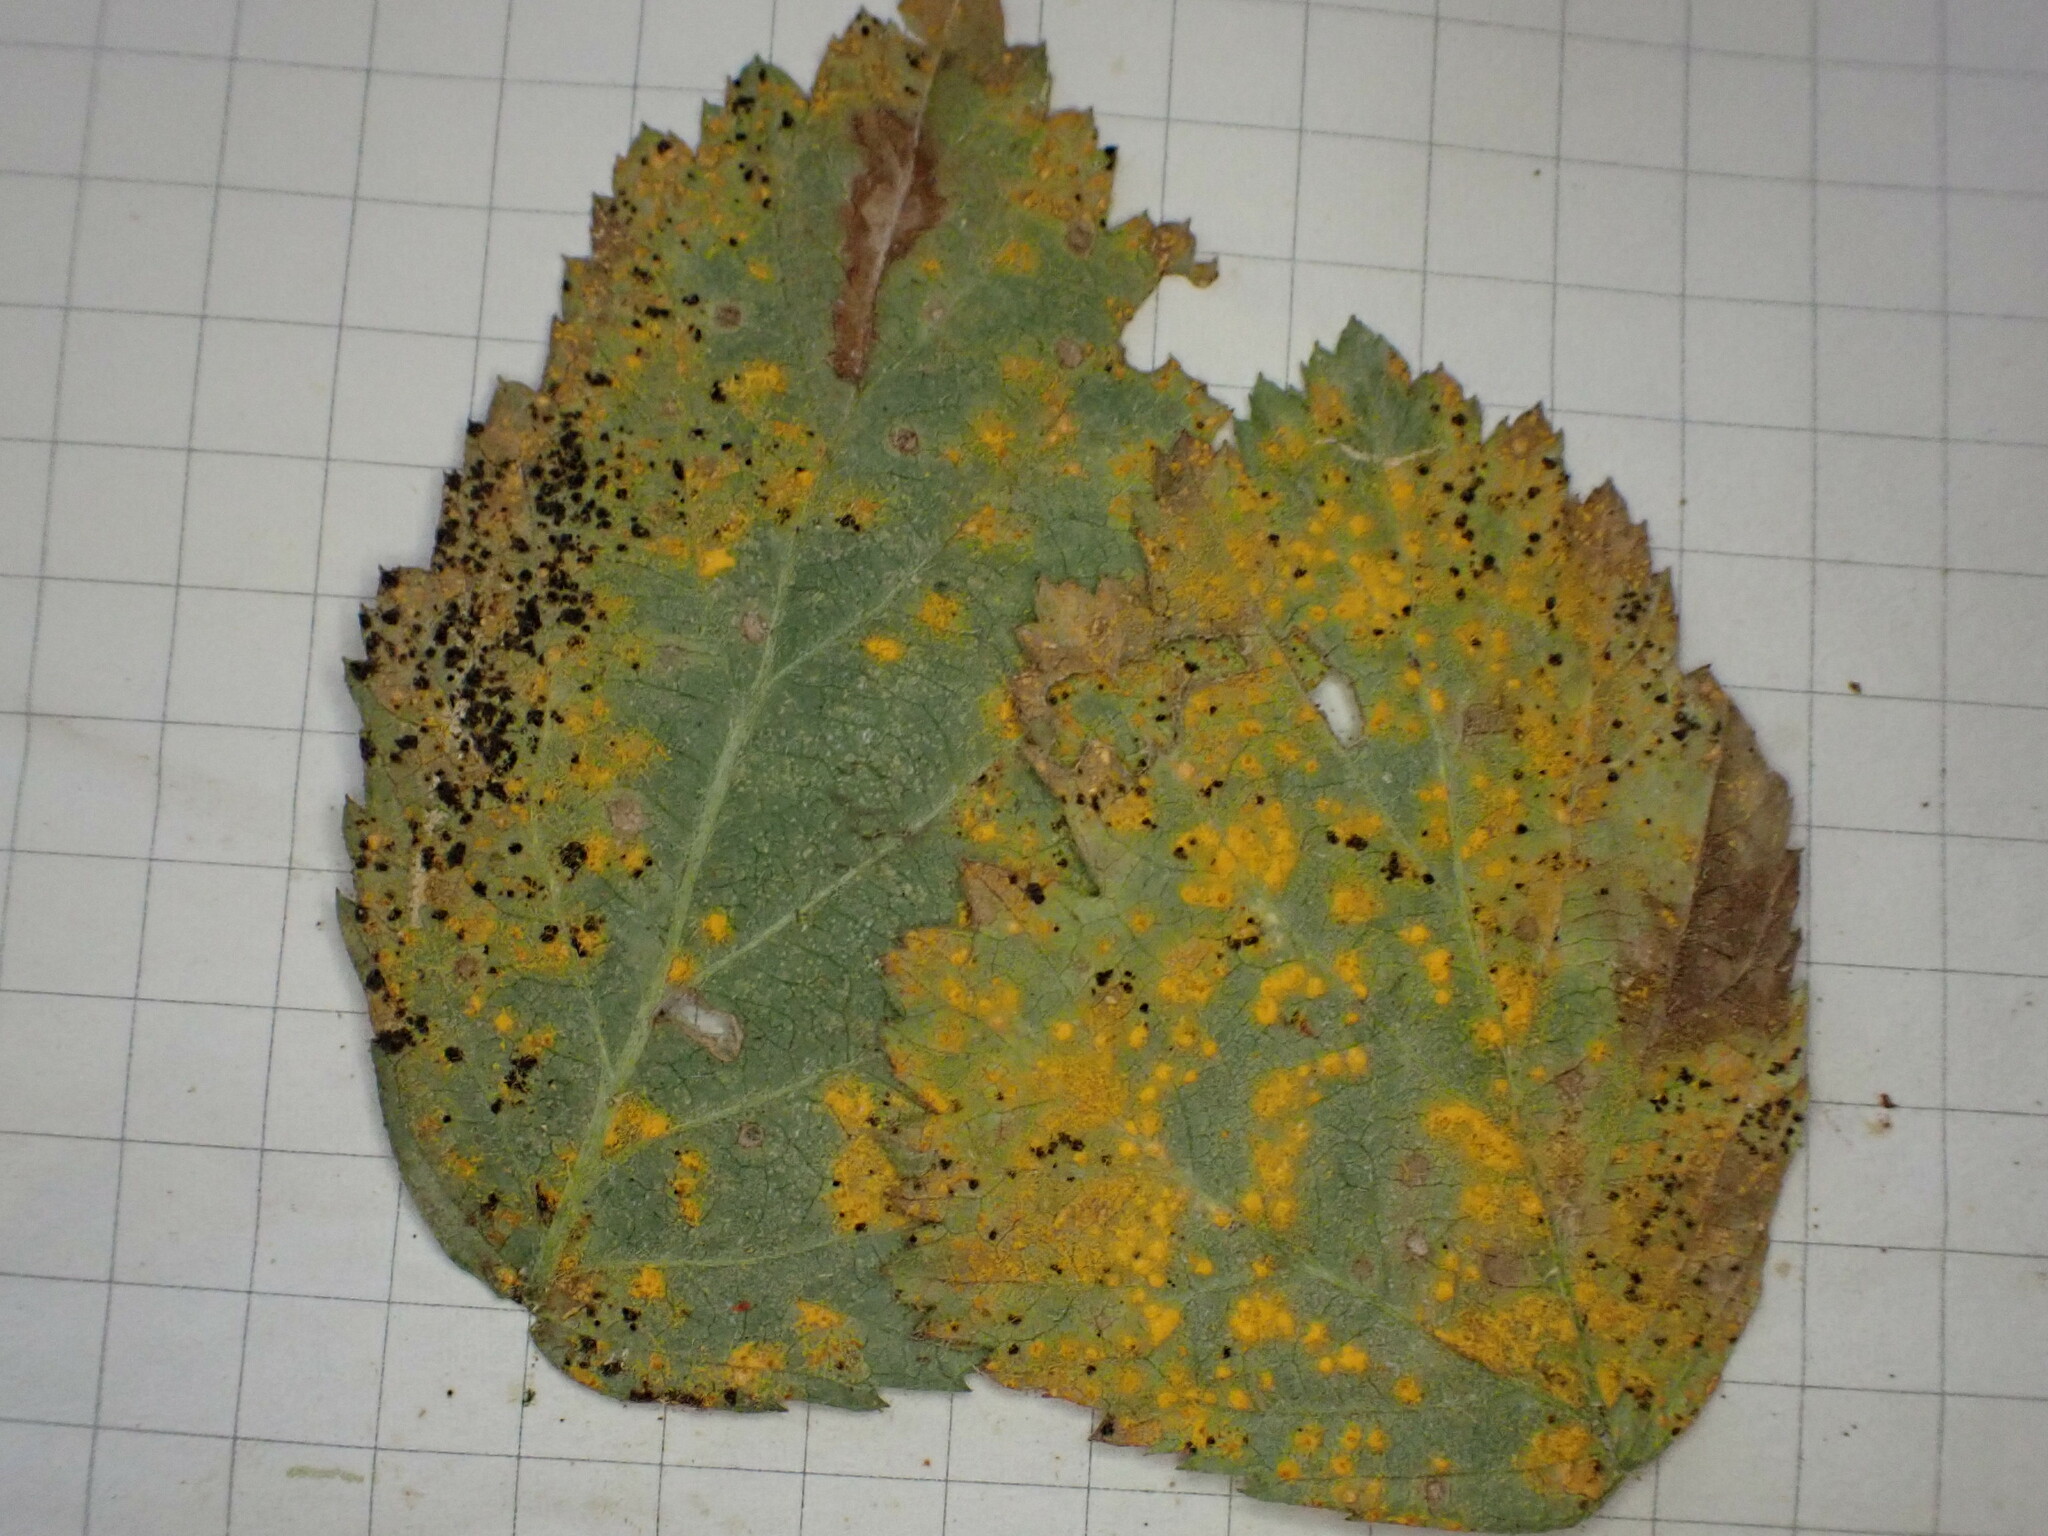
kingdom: Fungi
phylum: Basidiomycota
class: Pucciniomycetes
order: Pucciniales
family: Phragmidiaceae
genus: Phragmidium
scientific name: Phragmidium bulbosum
